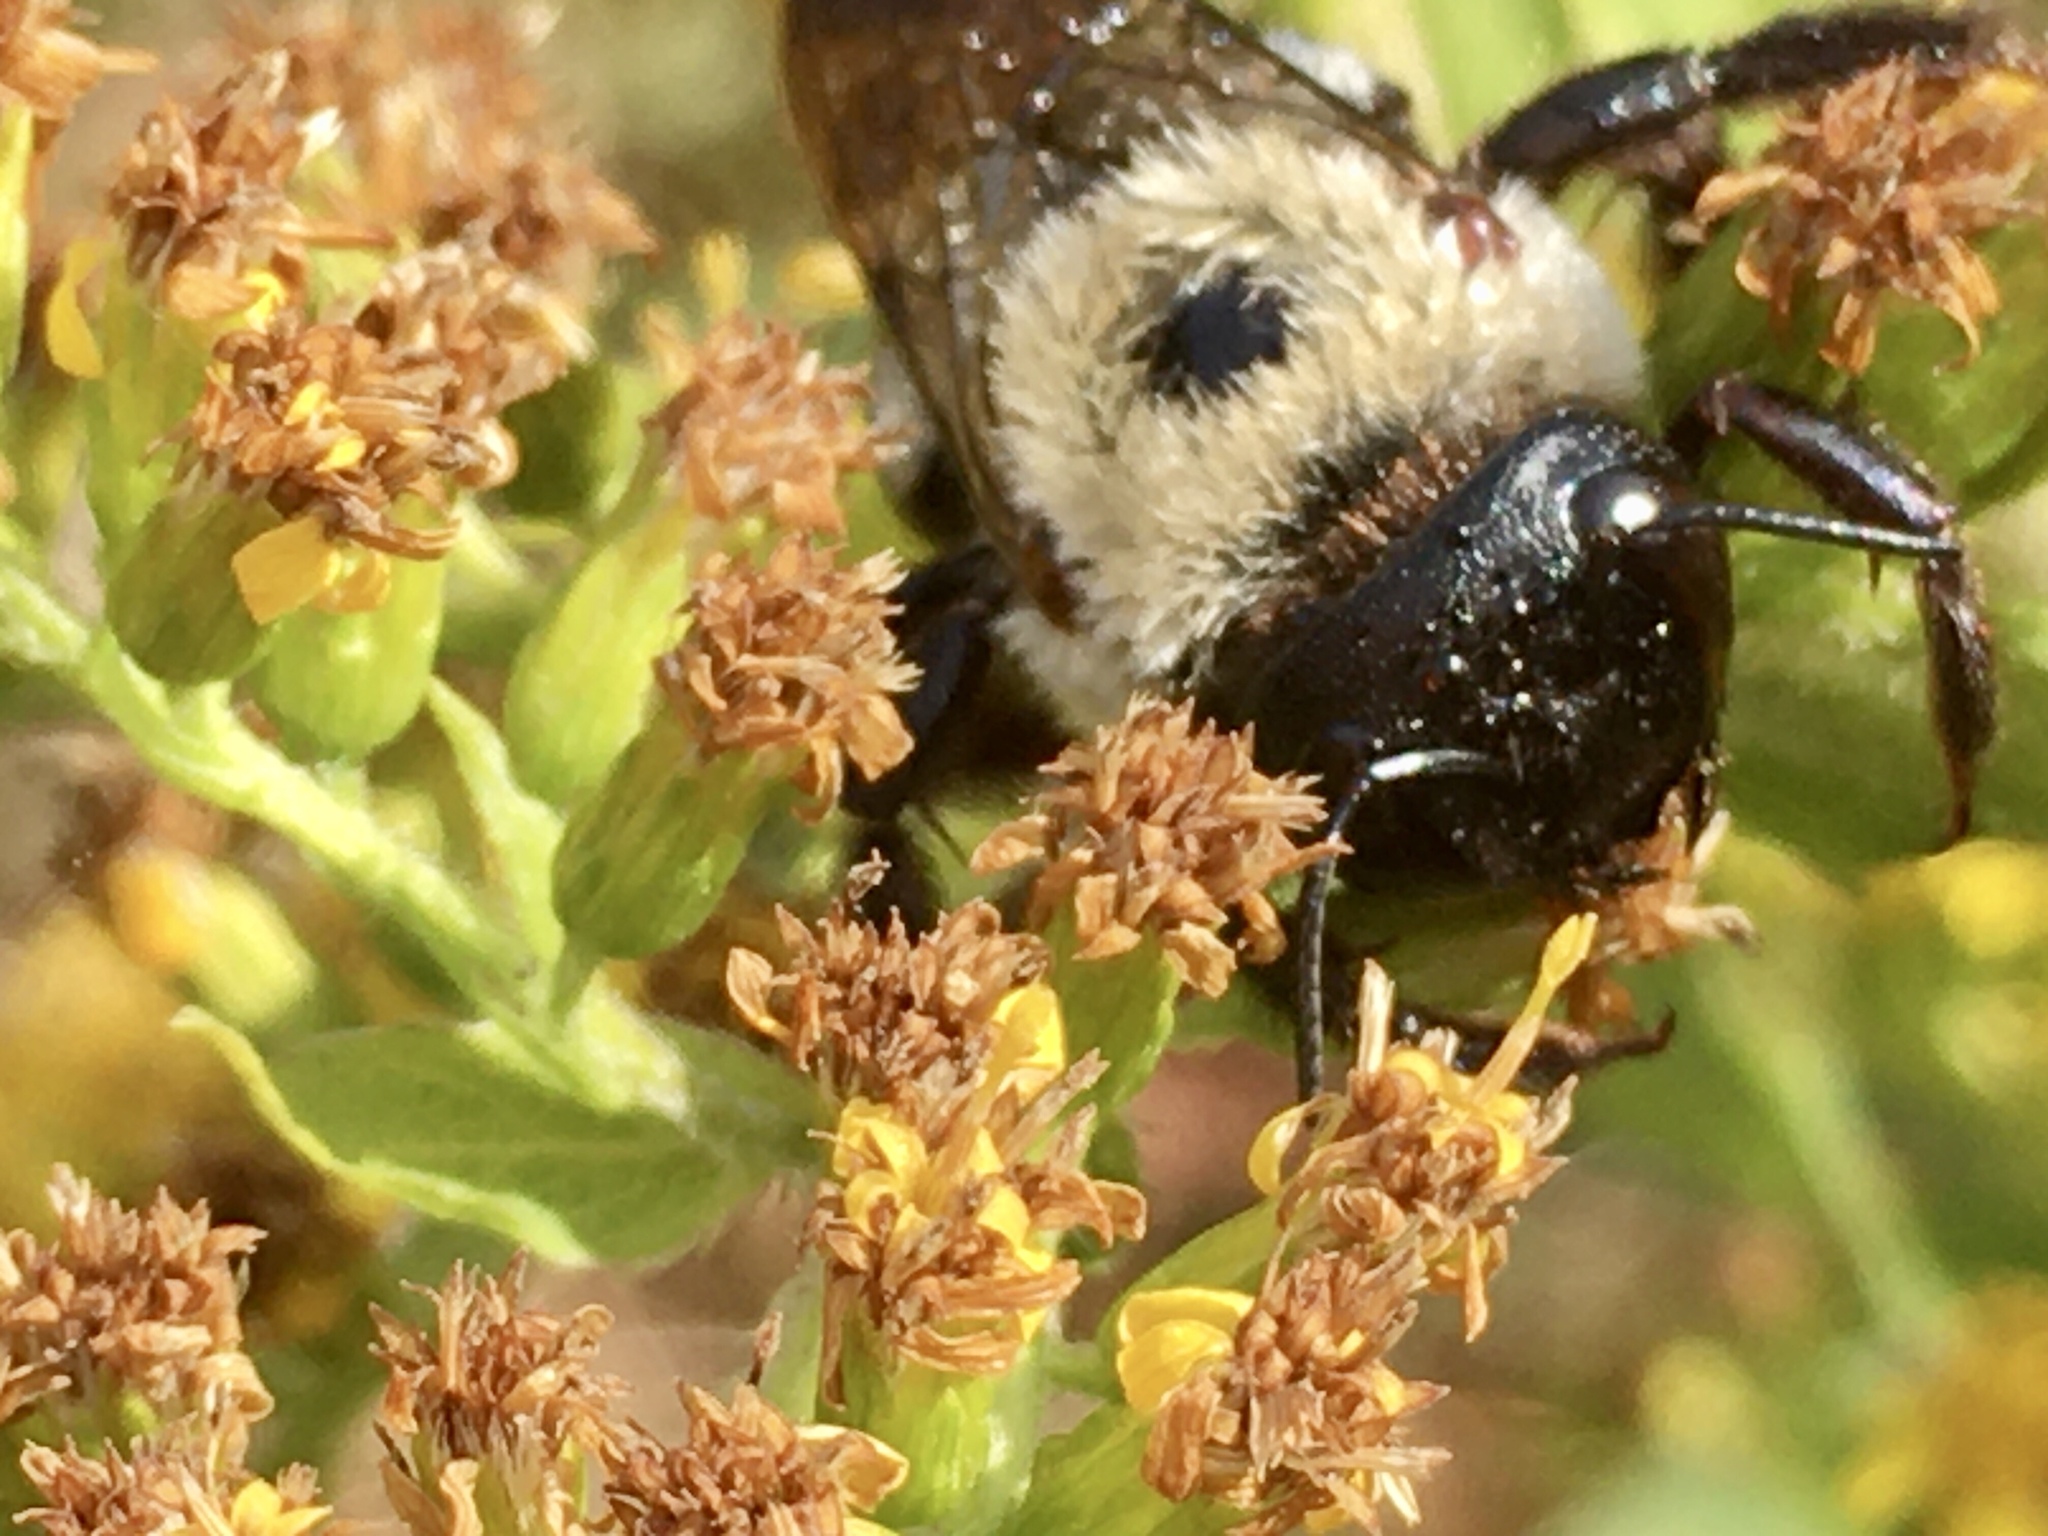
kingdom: Animalia
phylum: Arthropoda
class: Insecta
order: Hymenoptera
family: Apidae
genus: Xylocopa
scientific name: Xylocopa virginica
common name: Carpenter bee
